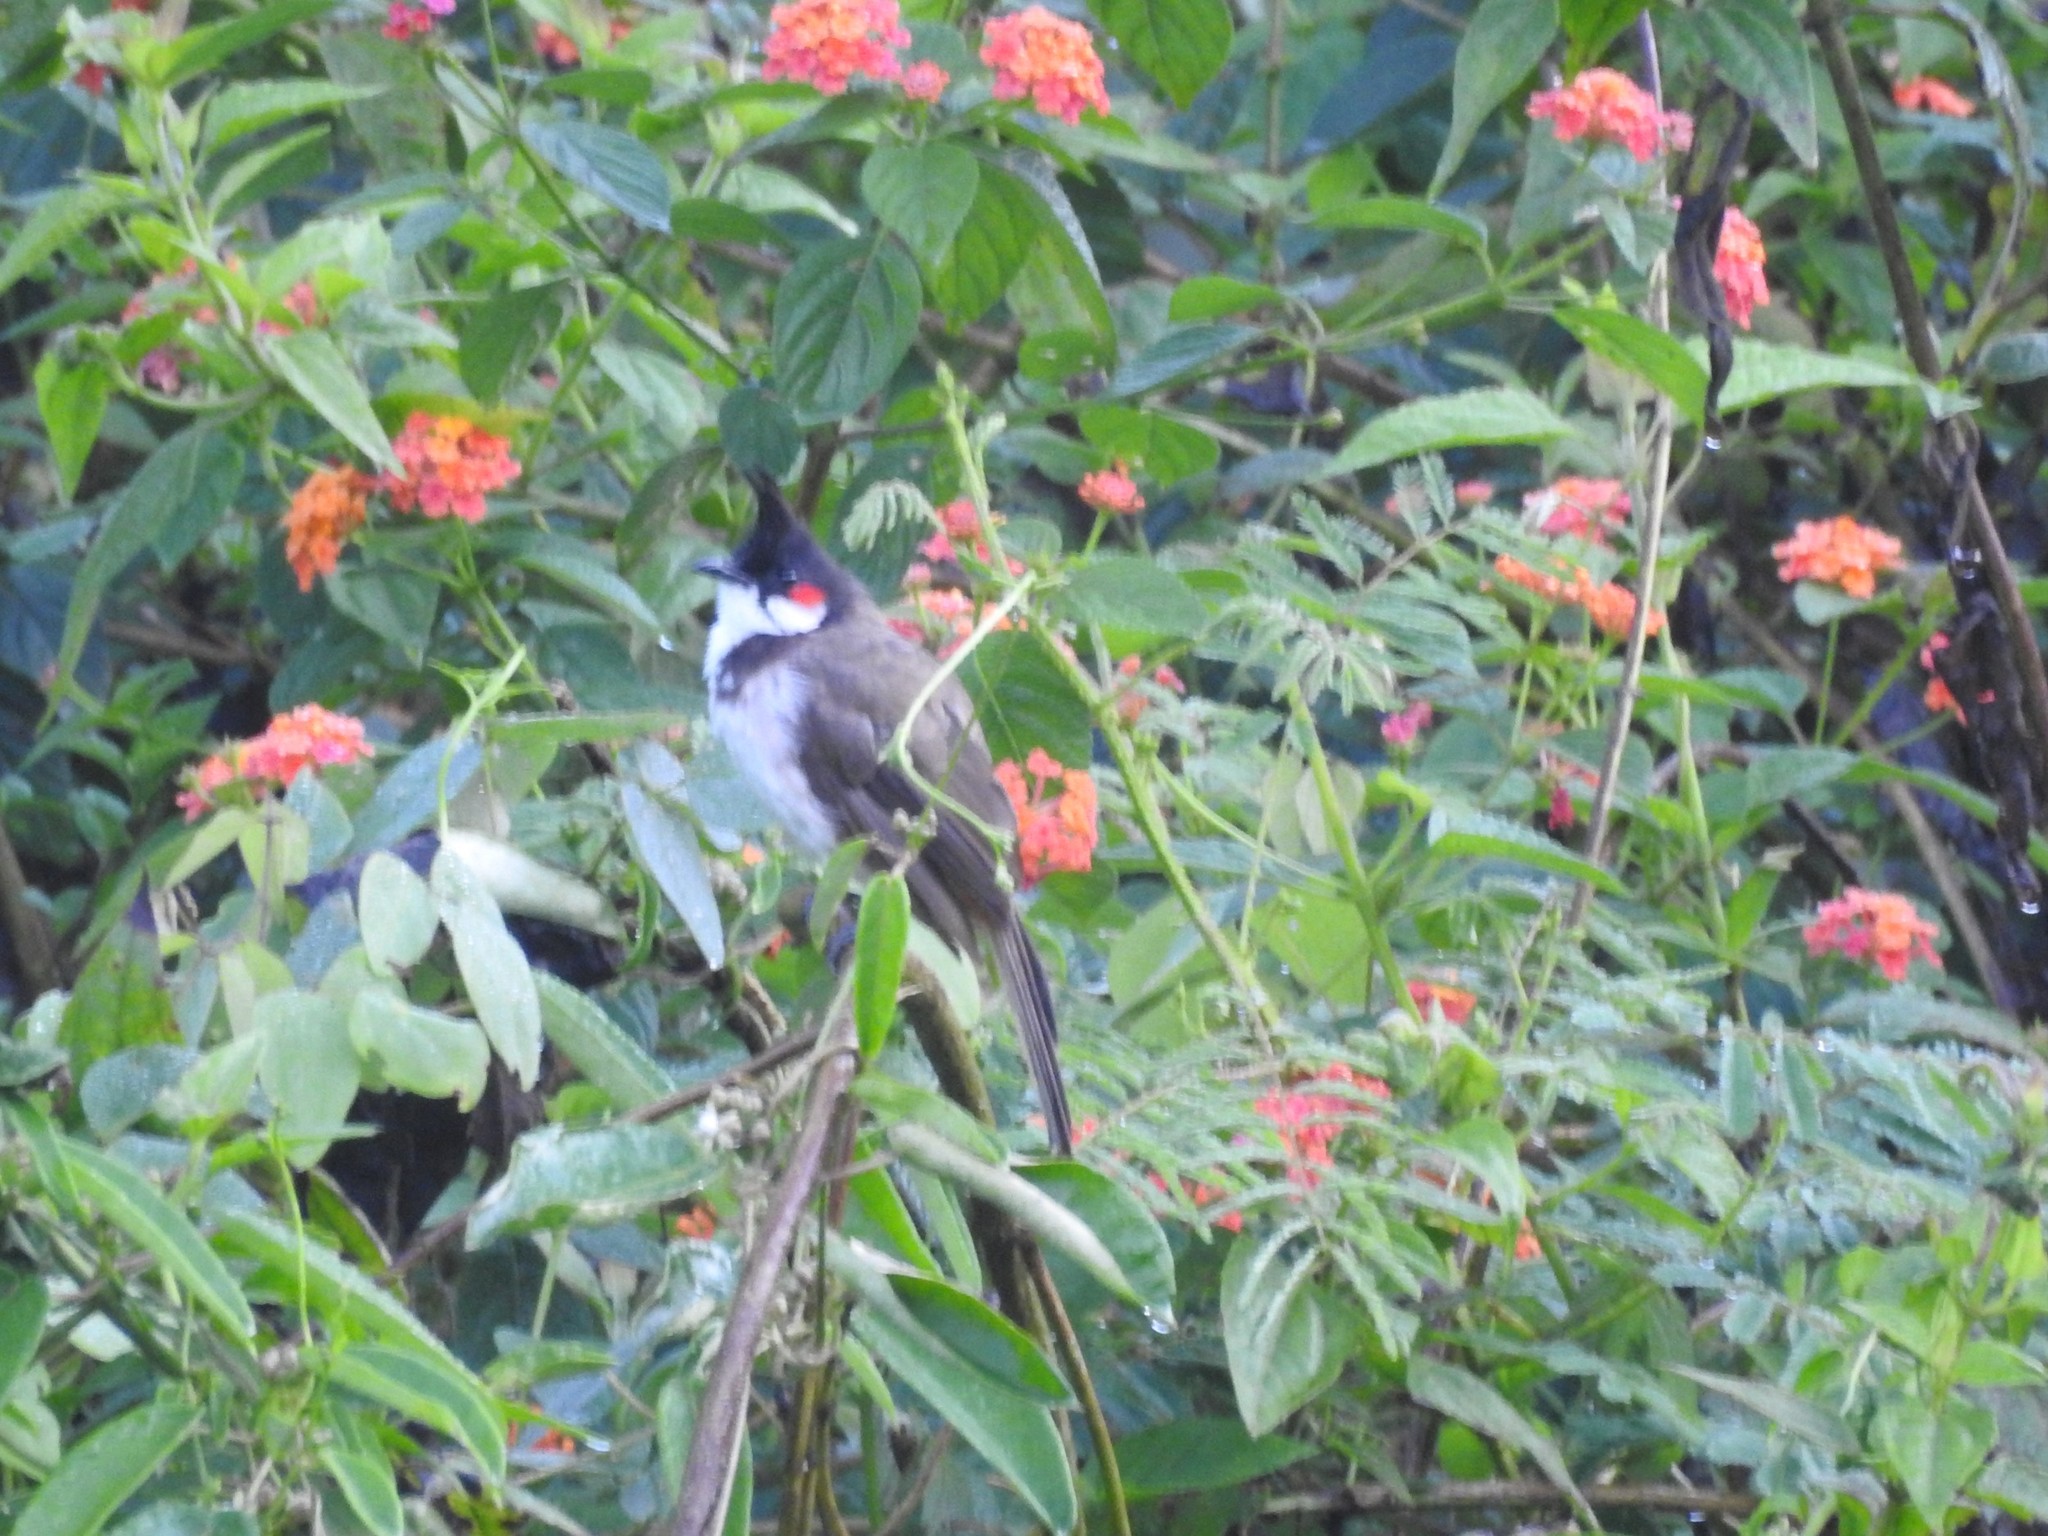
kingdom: Animalia
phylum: Chordata
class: Aves
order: Passeriformes
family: Pycnonotidae
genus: Pycnonotus
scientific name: Pycnonotus jocosus
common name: Red-whiskered bulbul
